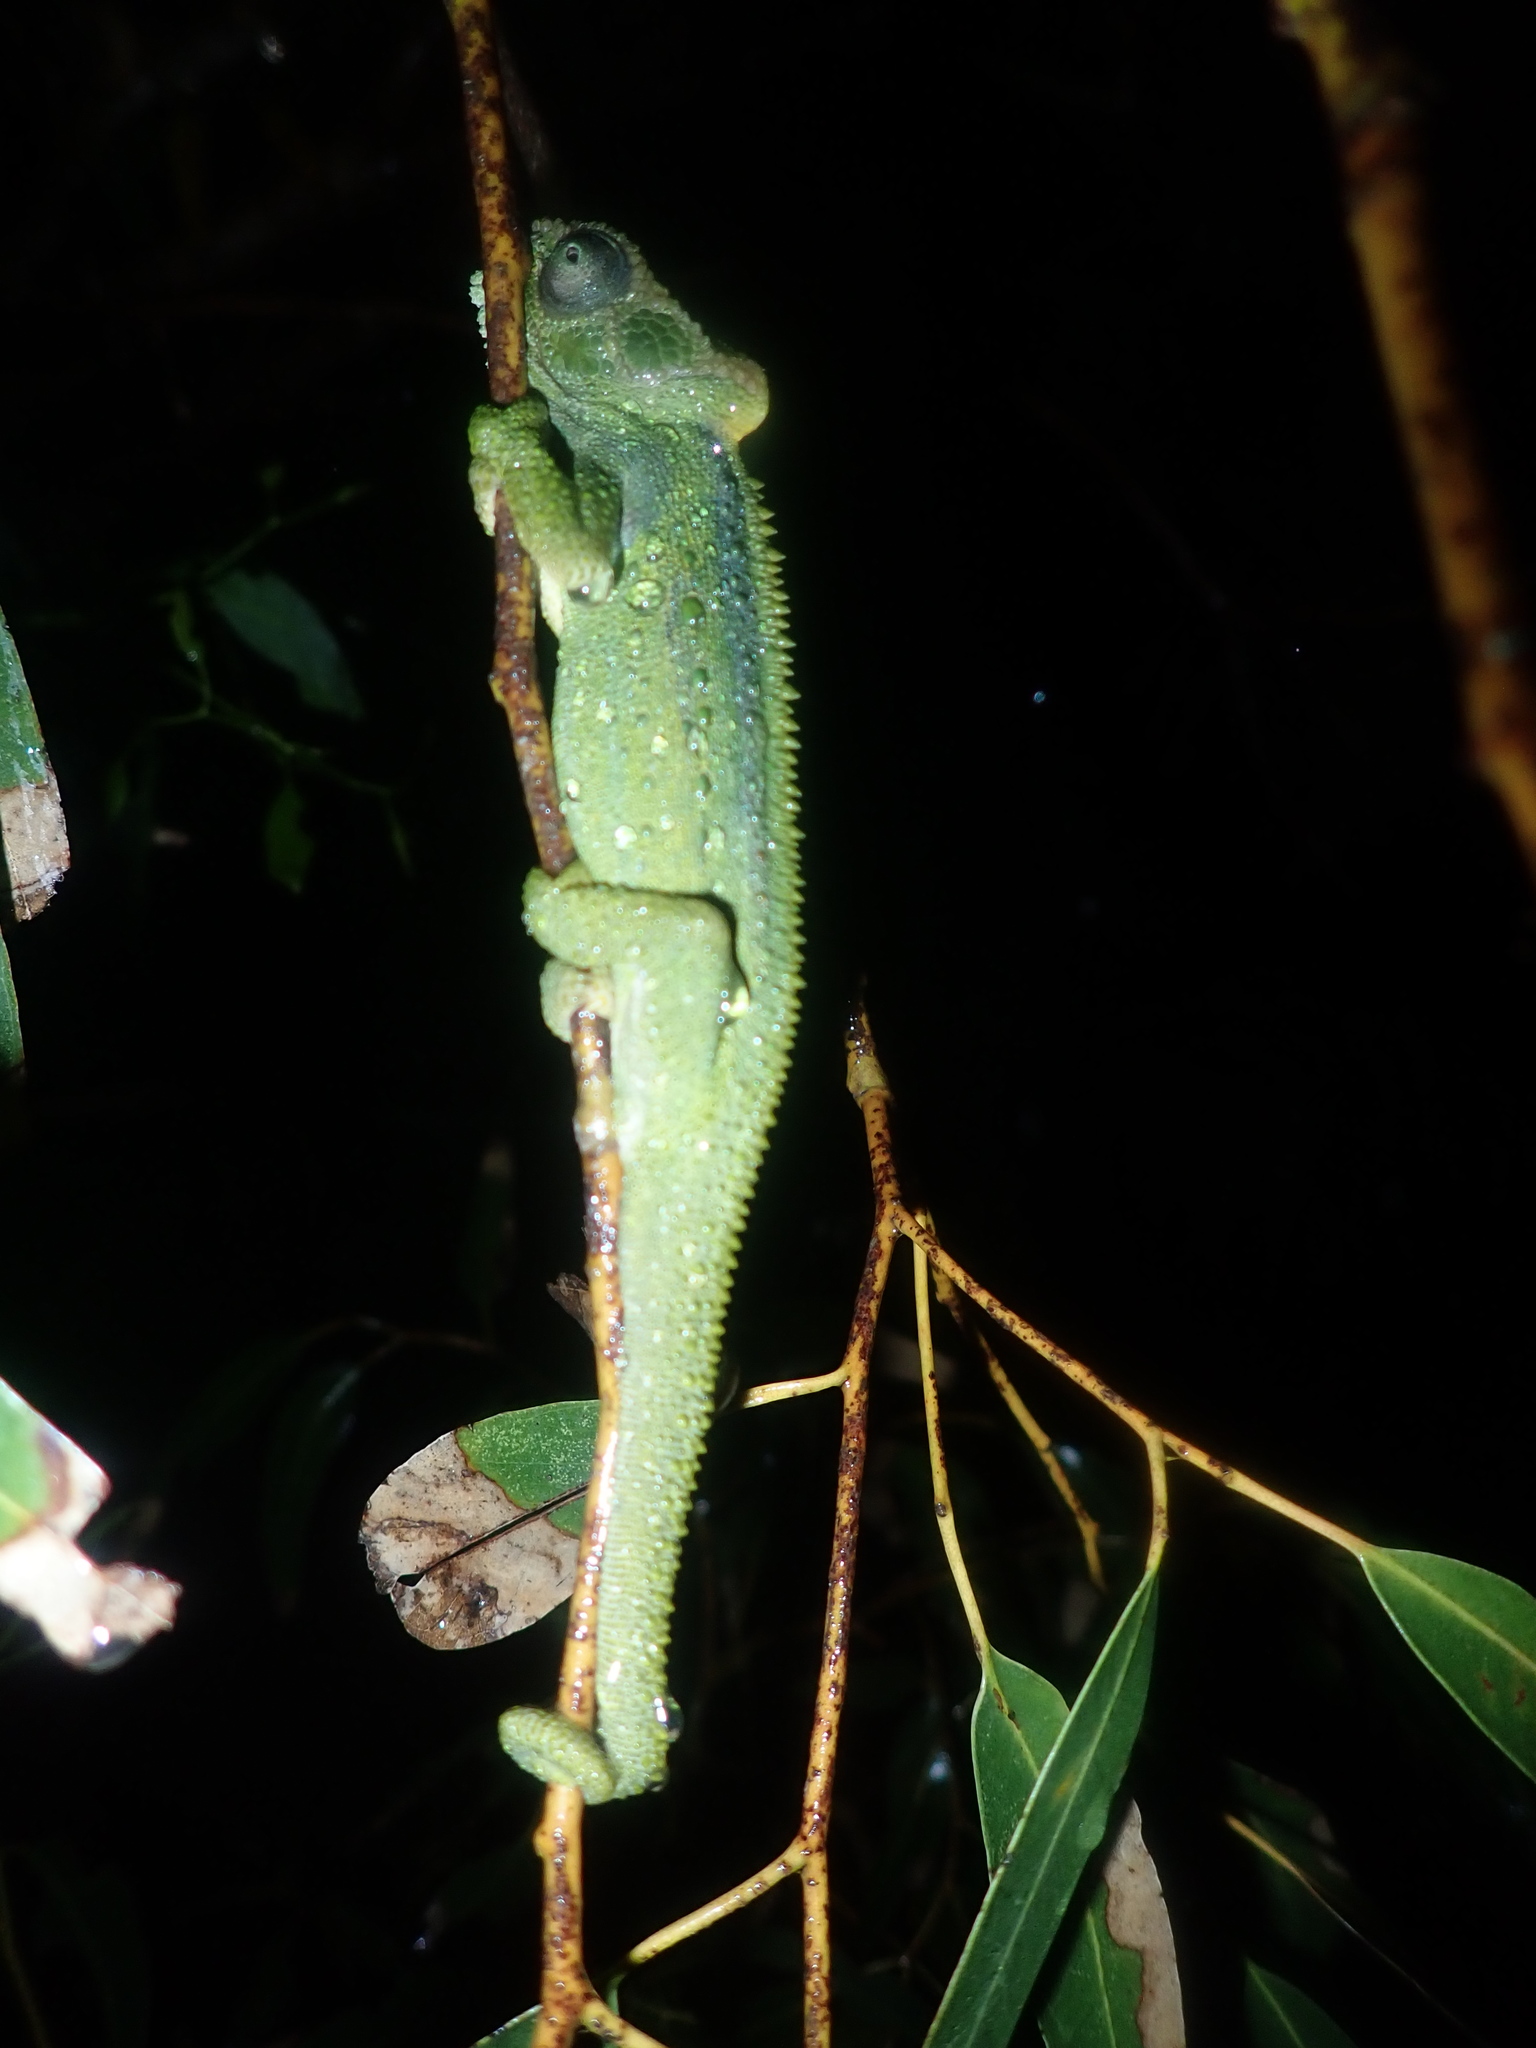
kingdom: Animalia
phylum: Chordata
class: Squamata
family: Chamaeleonidae
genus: Bradypodion
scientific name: Bradypodion pumilum
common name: Cape dwarf chameleon
